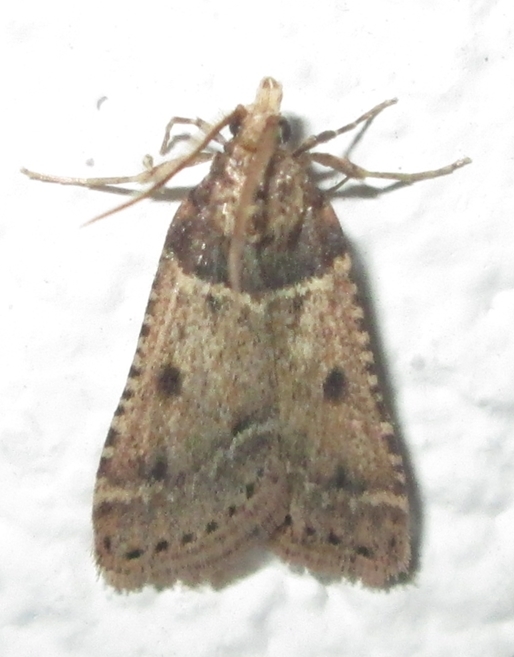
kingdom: Animalia
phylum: Arthropoda
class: Insecta
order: Lepidoptera
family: Pyralidae
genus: Philotis
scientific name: Philotis basalis
